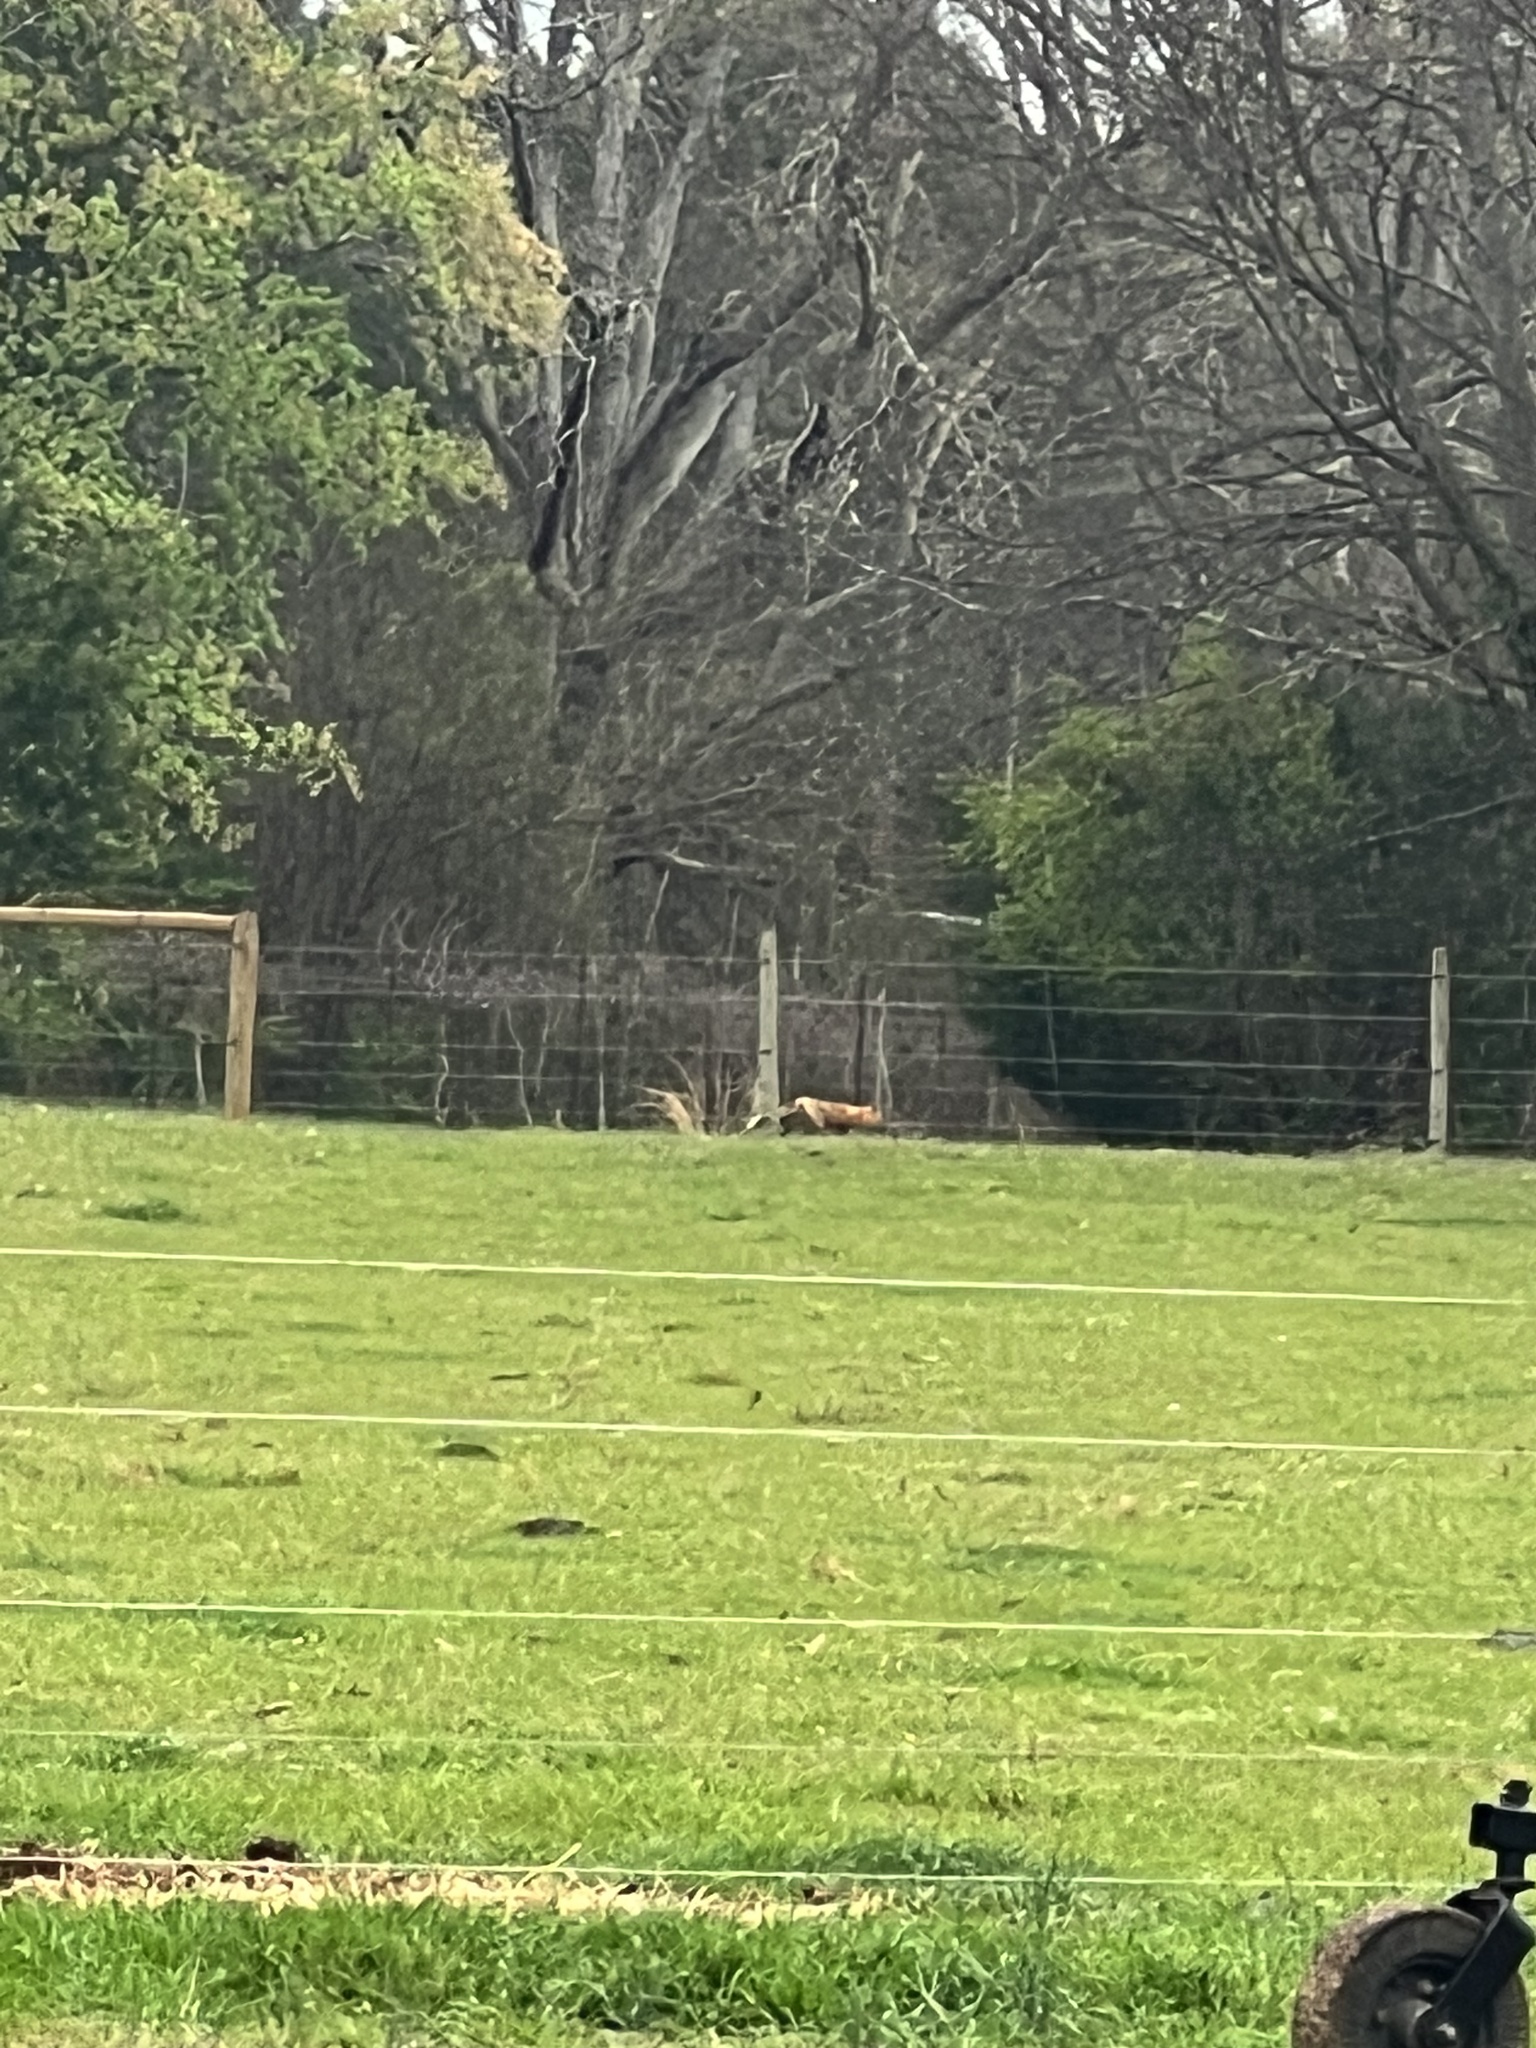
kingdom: Animalia
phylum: Chordata
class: Mammalia
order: Carnivora
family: Canidae
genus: Vulpes
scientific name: Vulpes vulpes
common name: Red fox
